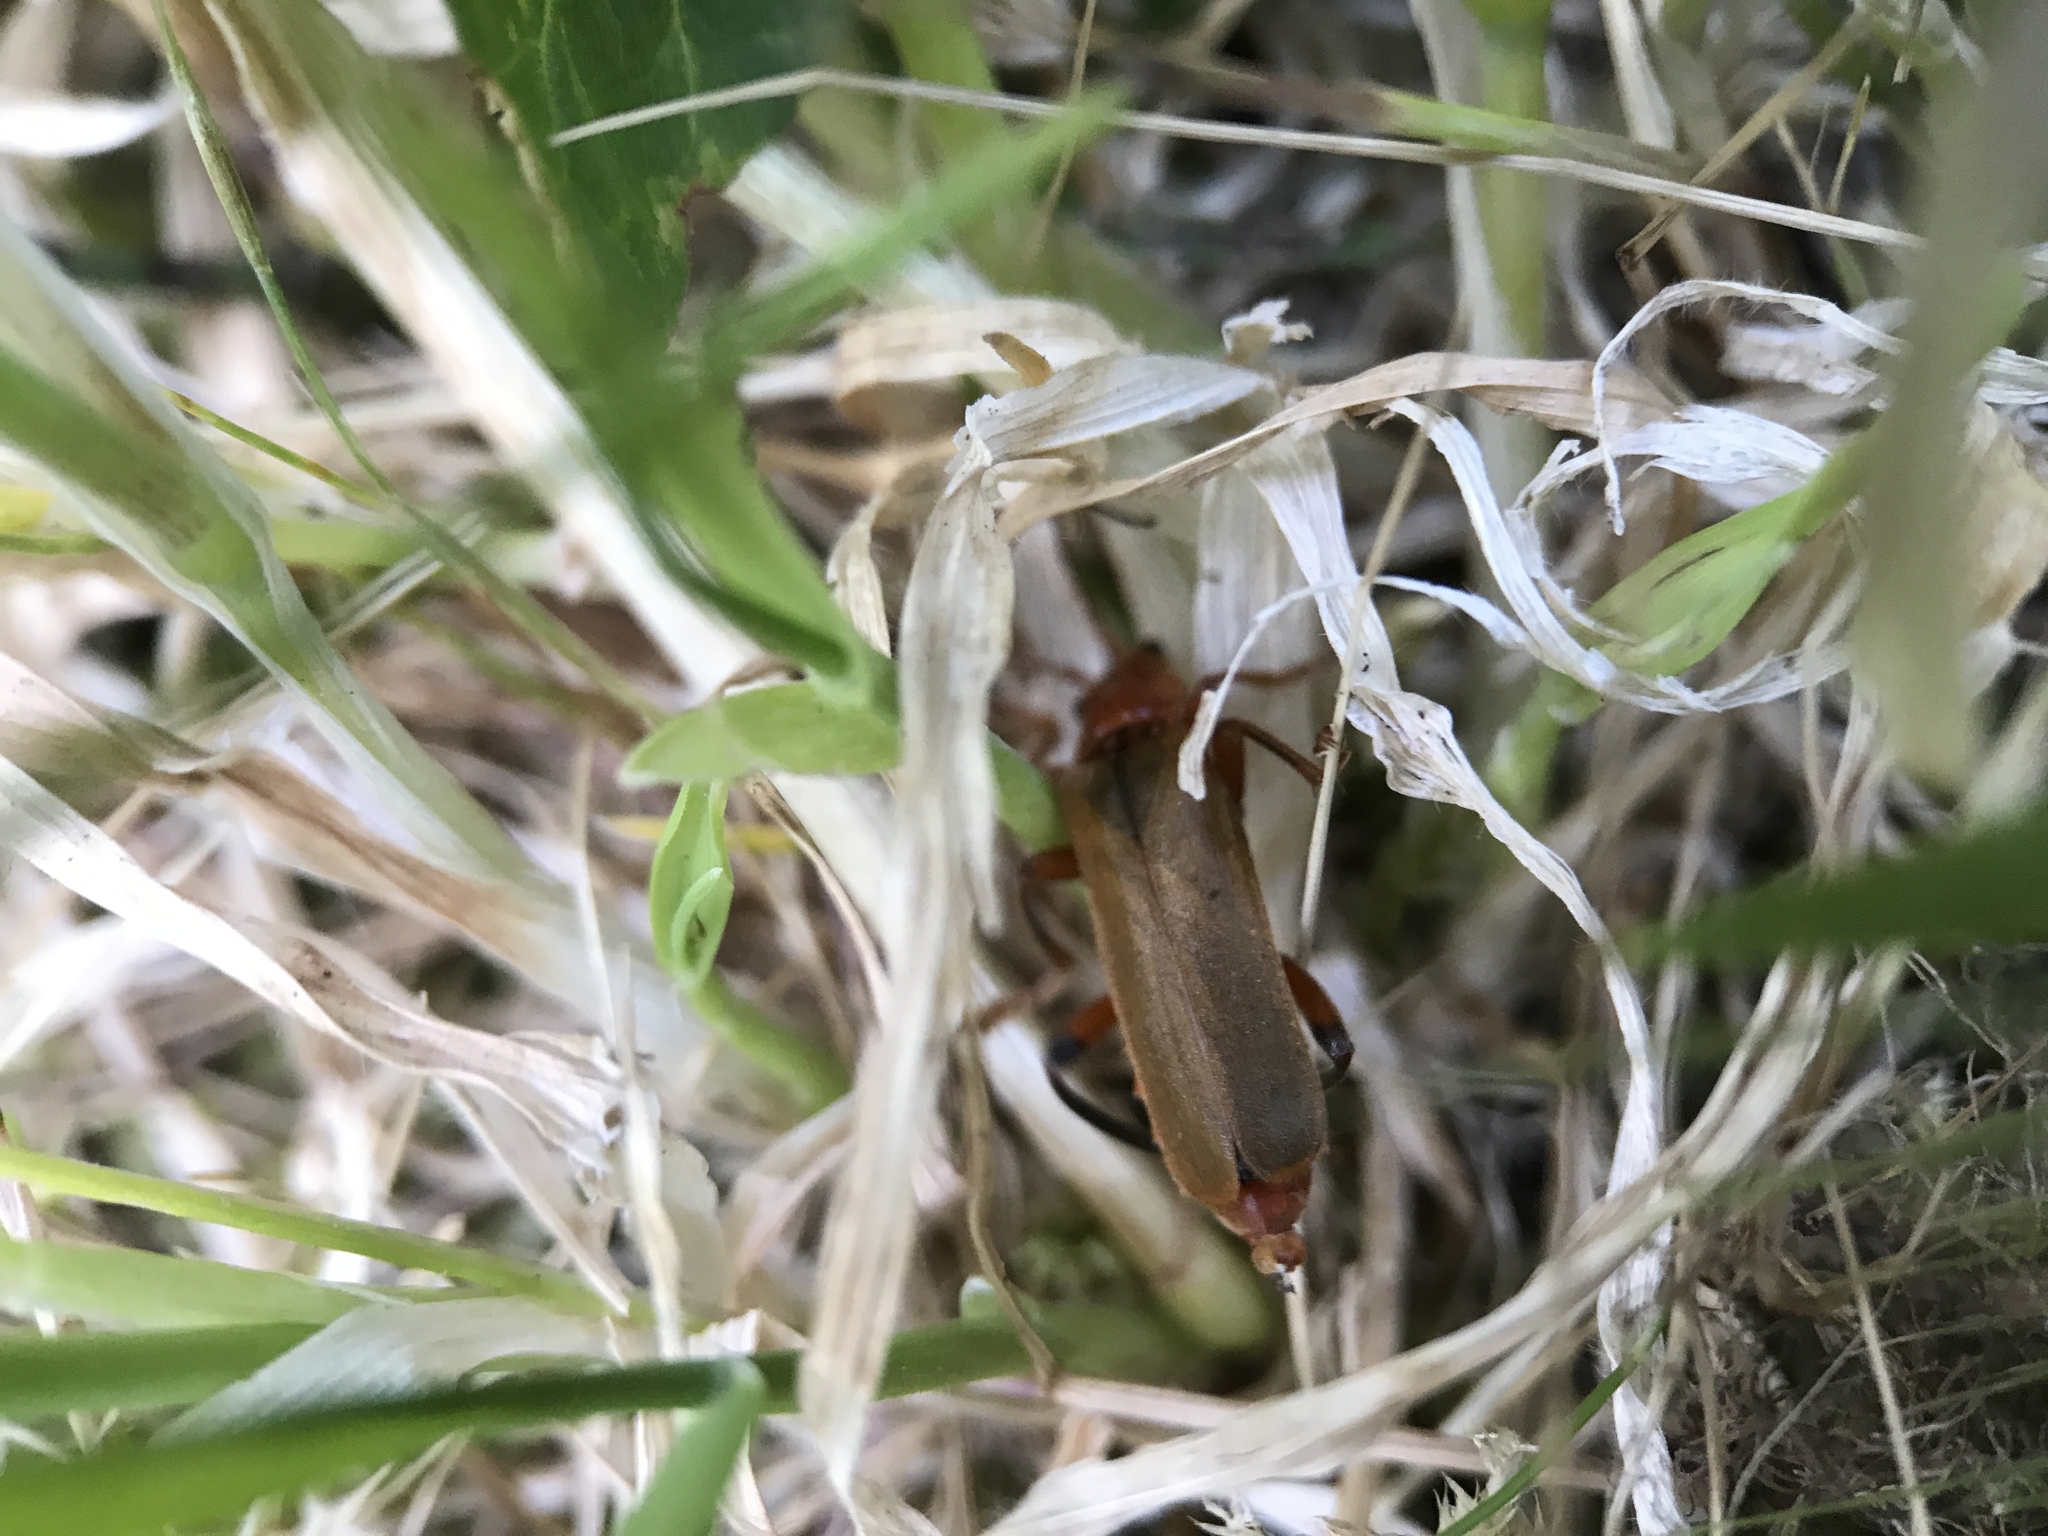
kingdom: Animalia
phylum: Arthropoda
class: Insecta
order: Coleoptera
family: Cantharidae
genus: Cantharis
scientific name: Cantharis livida
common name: Livid soldier beetle
